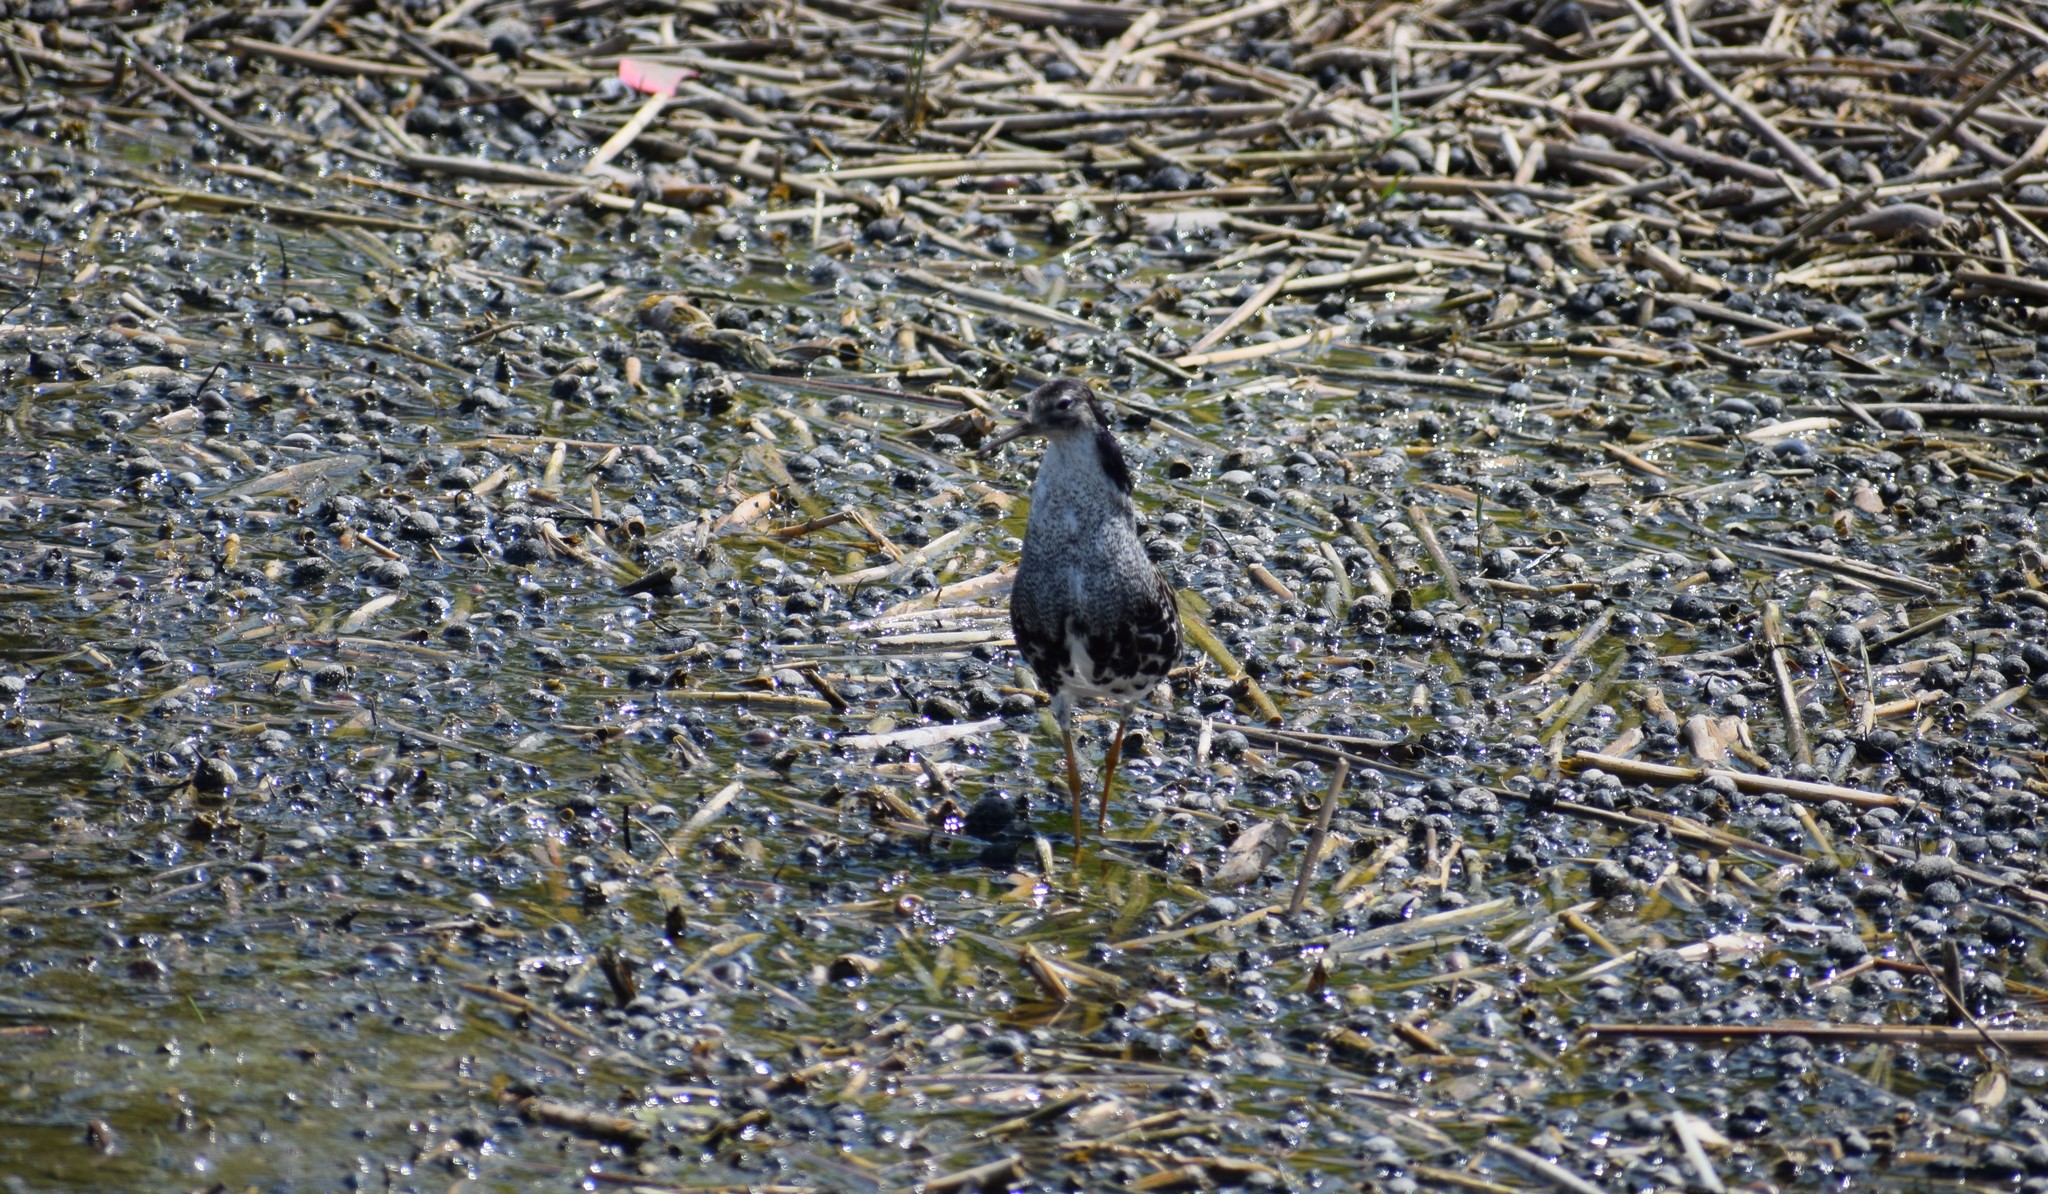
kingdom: Animalia
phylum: Chordata
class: Aves
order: Charadriiformes
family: Scolopacidae
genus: Calidris
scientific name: Calidris pugnax
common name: Ruff
